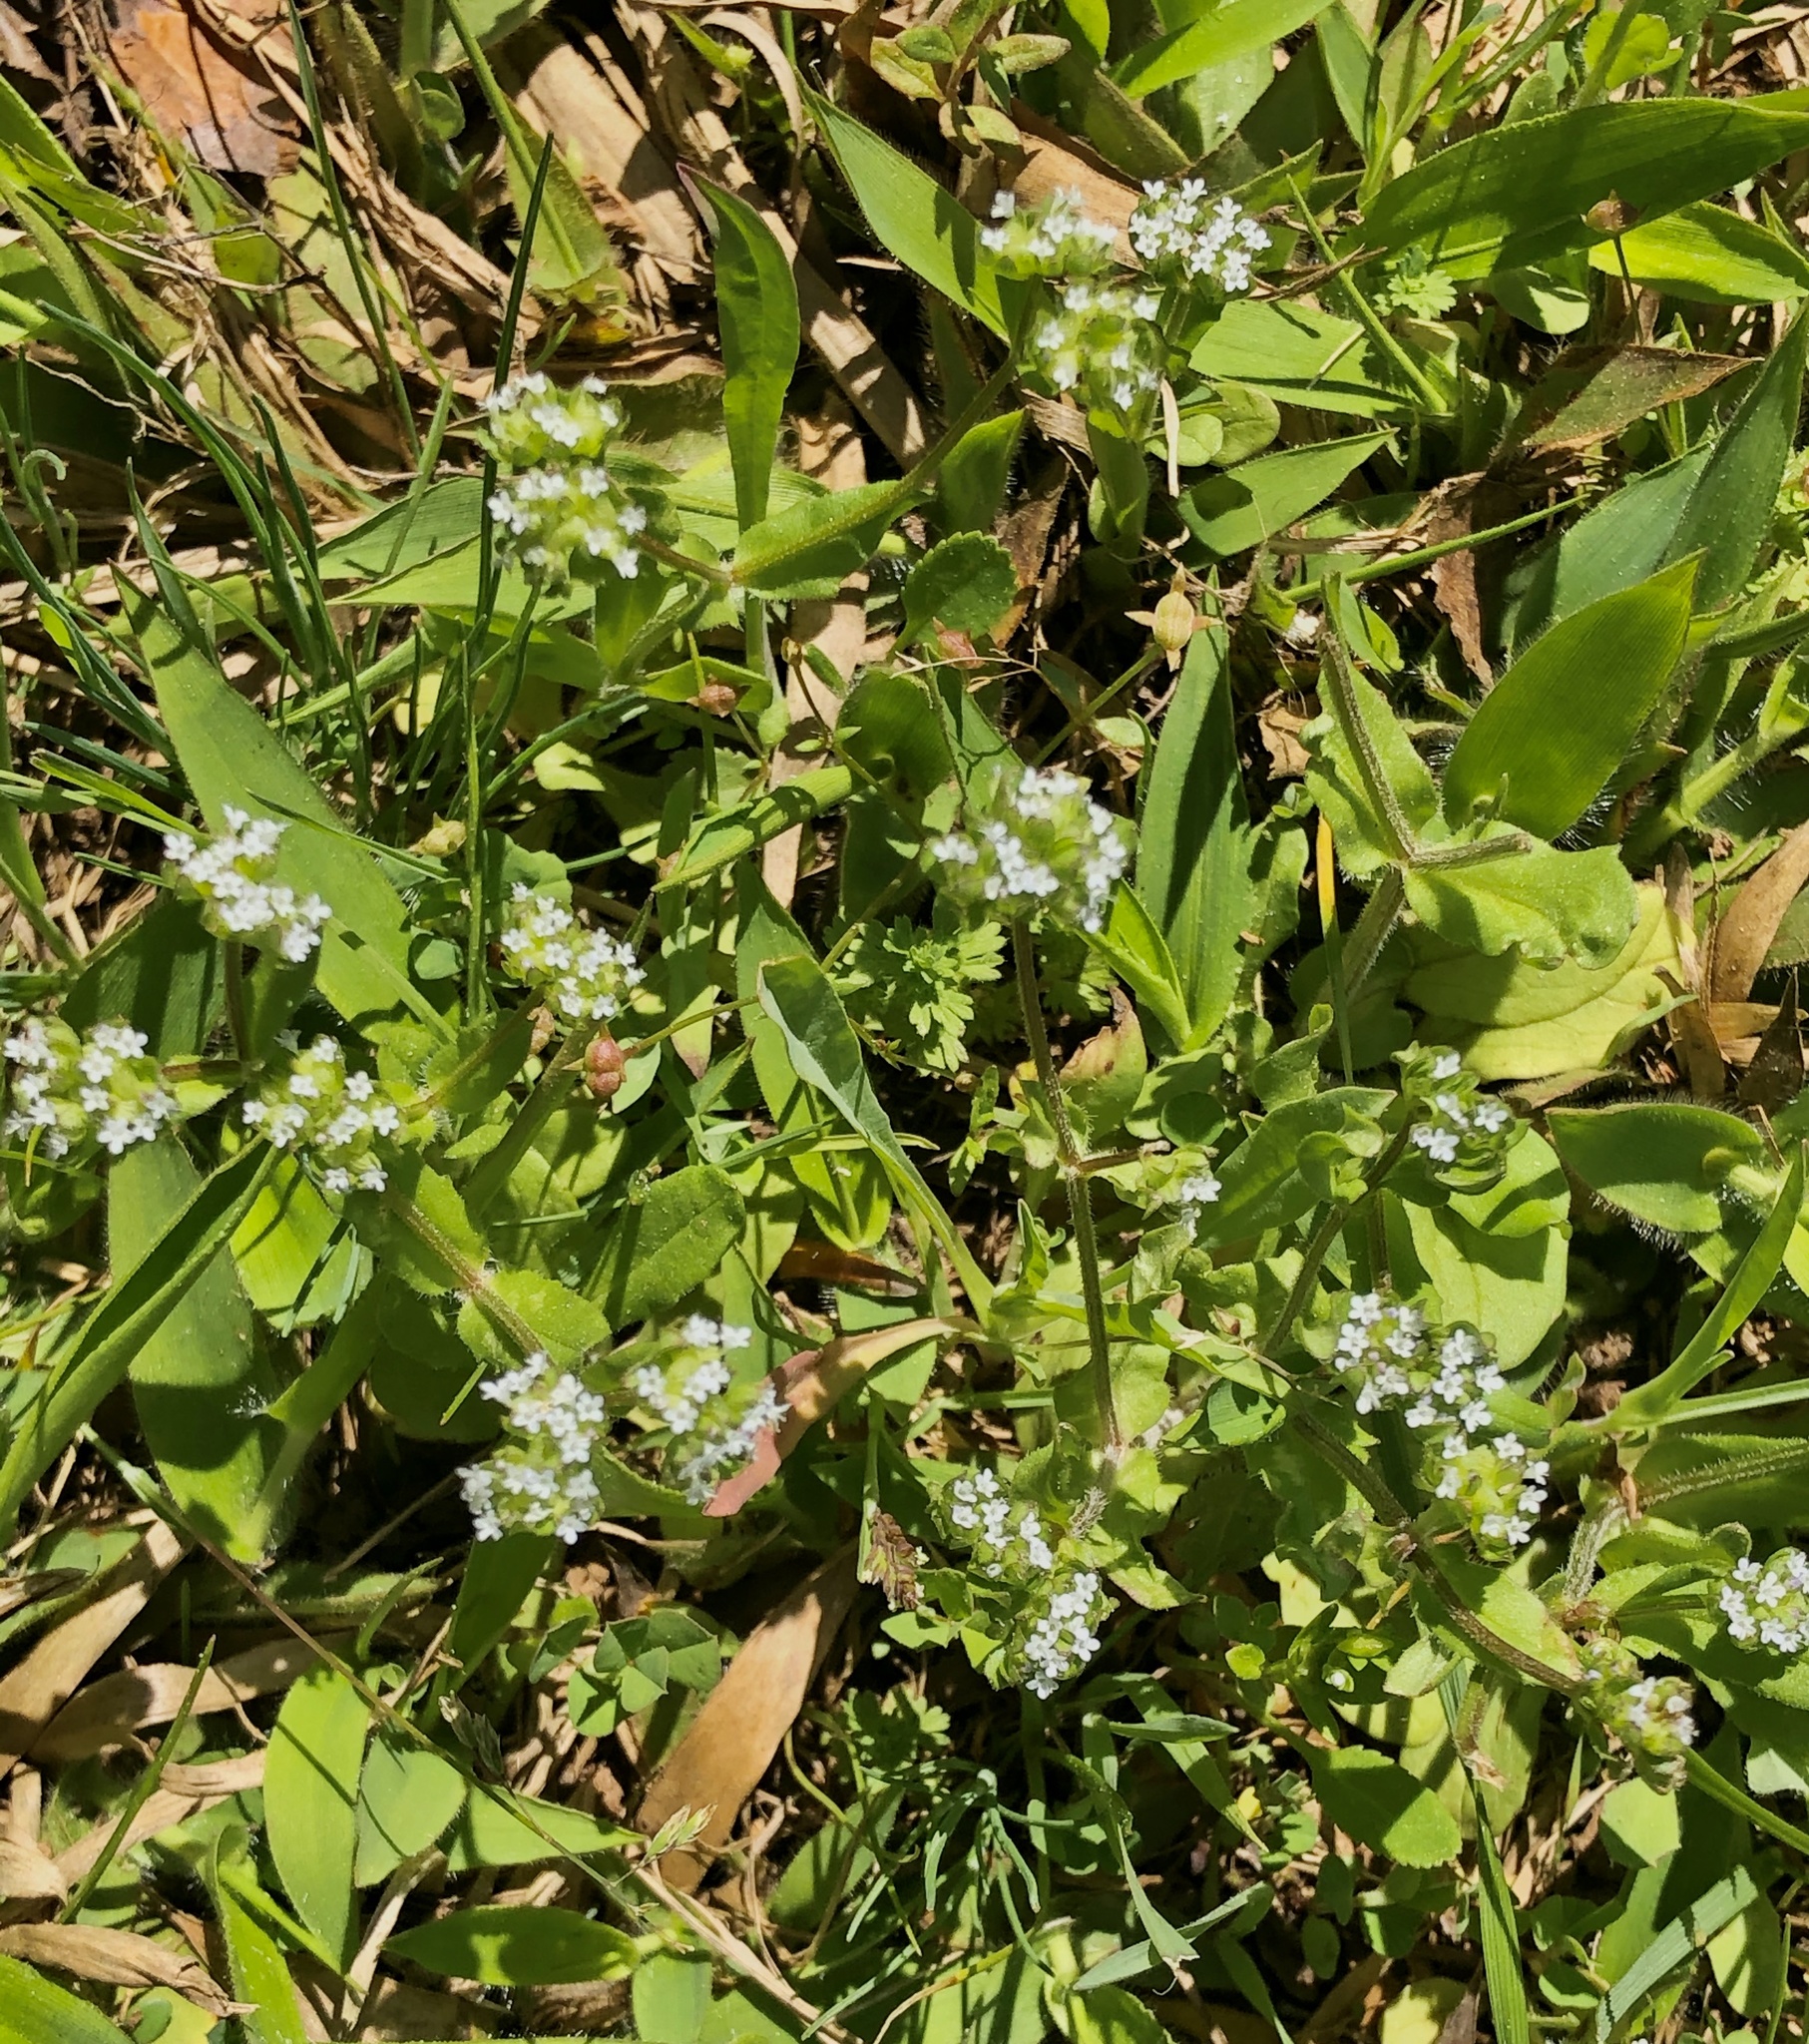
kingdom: Plantae
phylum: Tracheophyta
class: Magnoliopsida
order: Dipsacales
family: Caprifoliaceae
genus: Valerianella
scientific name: Valerianella radiata
